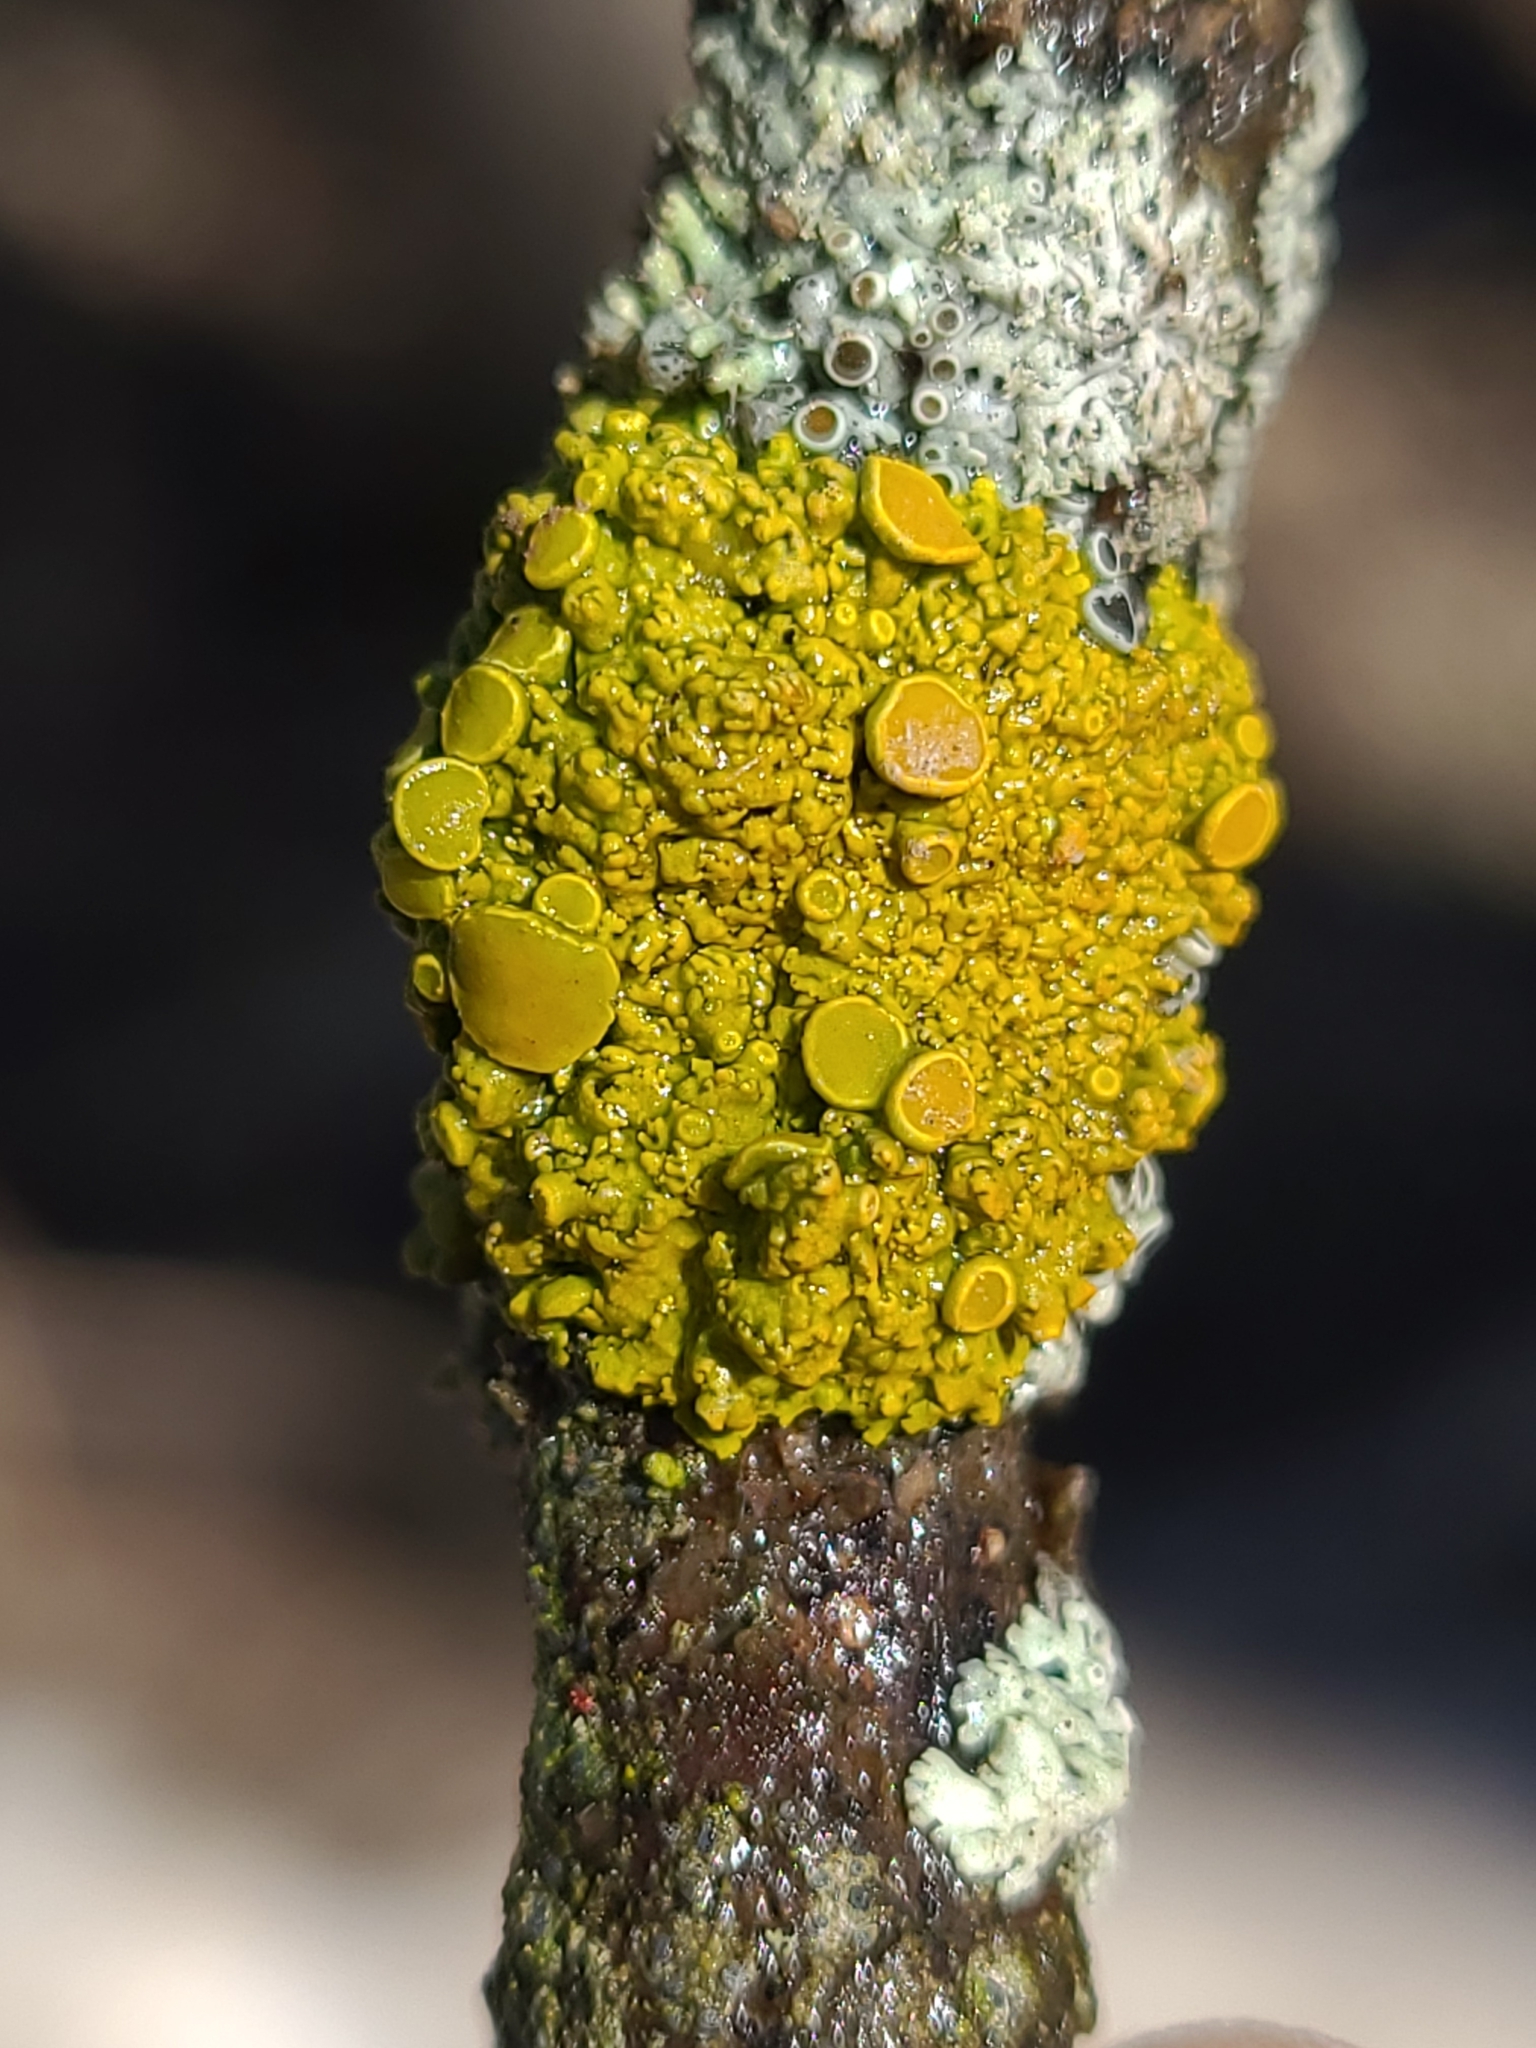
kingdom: Fungi
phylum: Ascomycota
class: Lecanoromycetes
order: Teloschistales
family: Teloschistaceae
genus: Gallowayella
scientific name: Gallowayella hasseana
